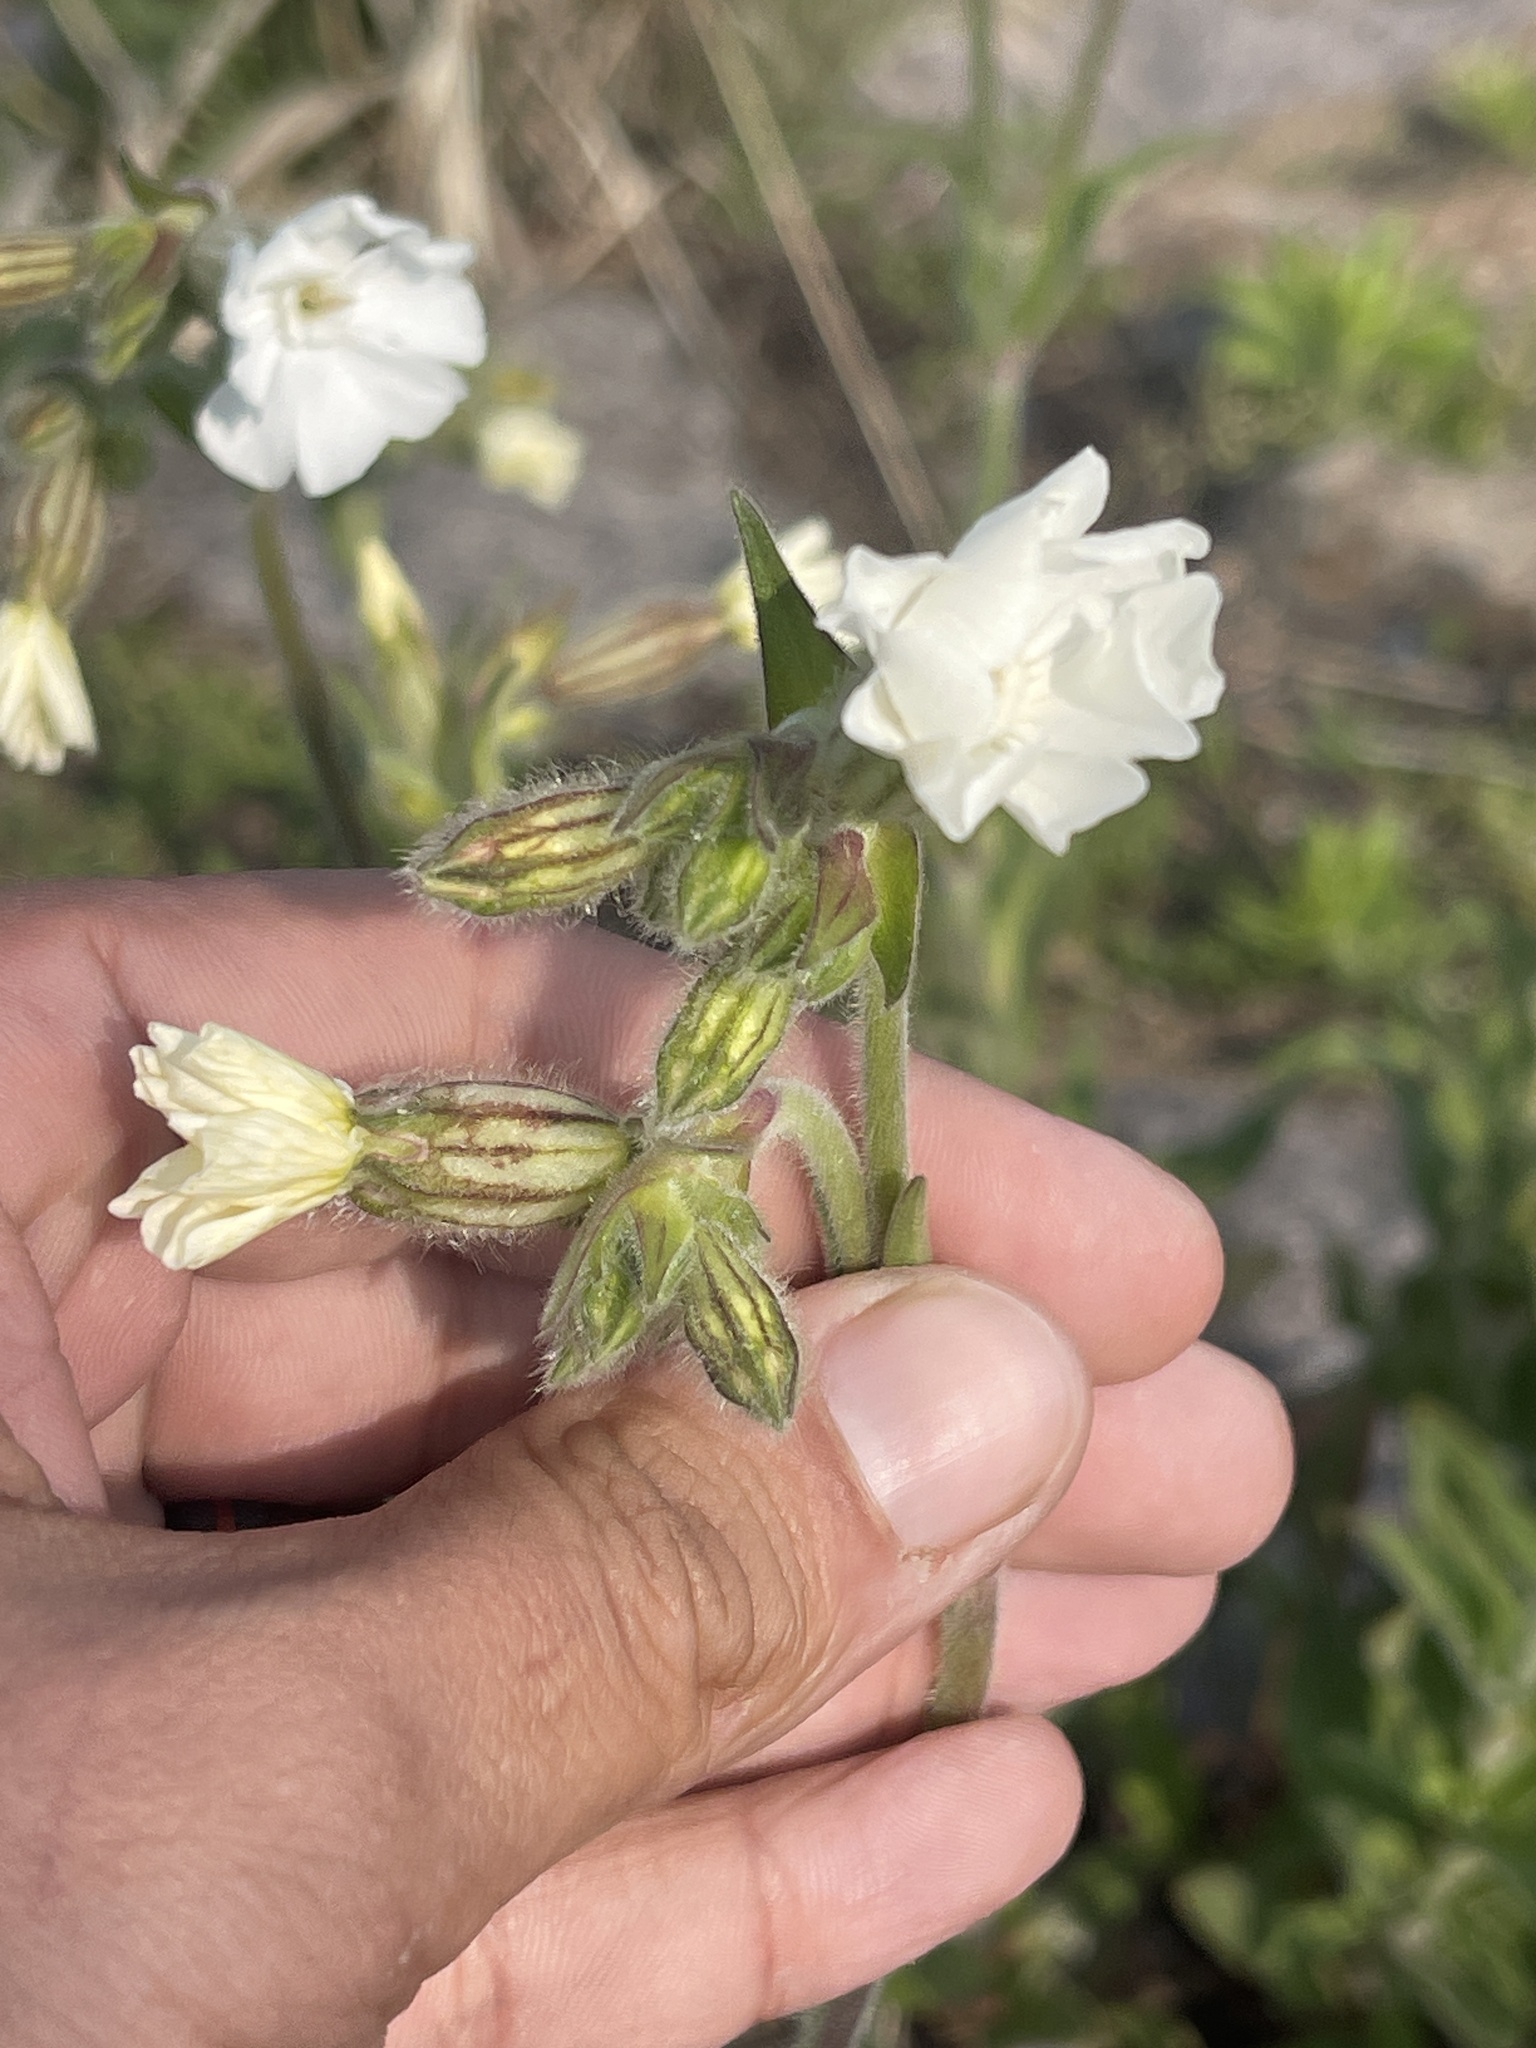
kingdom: Plantae
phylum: Tracheophyta
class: Magnoliopsida
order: Caryophyllales
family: Caryophyllaceae
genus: Silene
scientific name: Silene latifolia
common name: White campion
